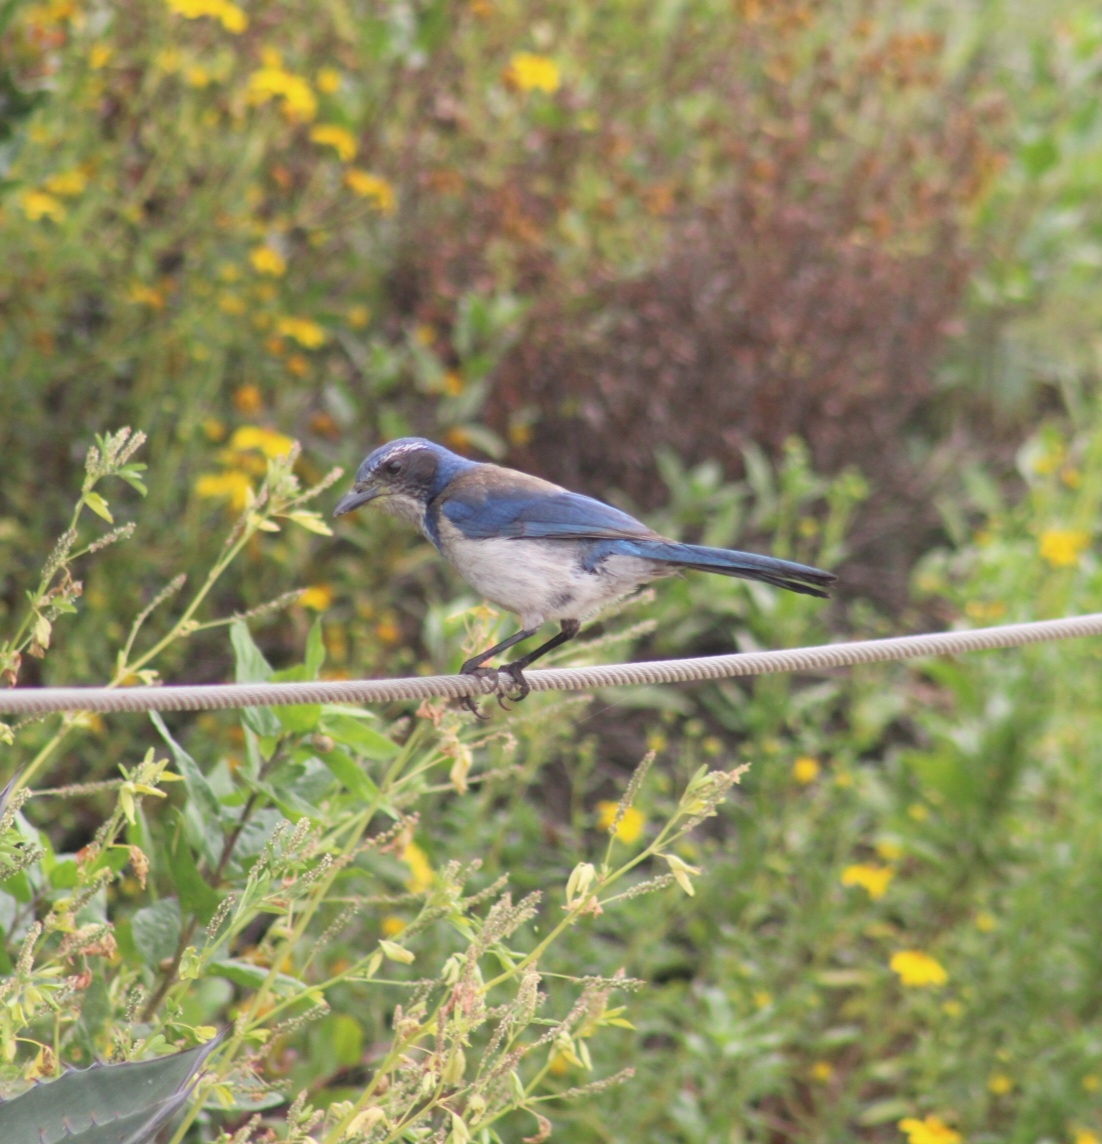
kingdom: Animalia
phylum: Chordata
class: Aves
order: Passeriformes
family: Corvidae
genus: Aphelocoma
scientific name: Aphelocoma californica
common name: California scrub-jay
